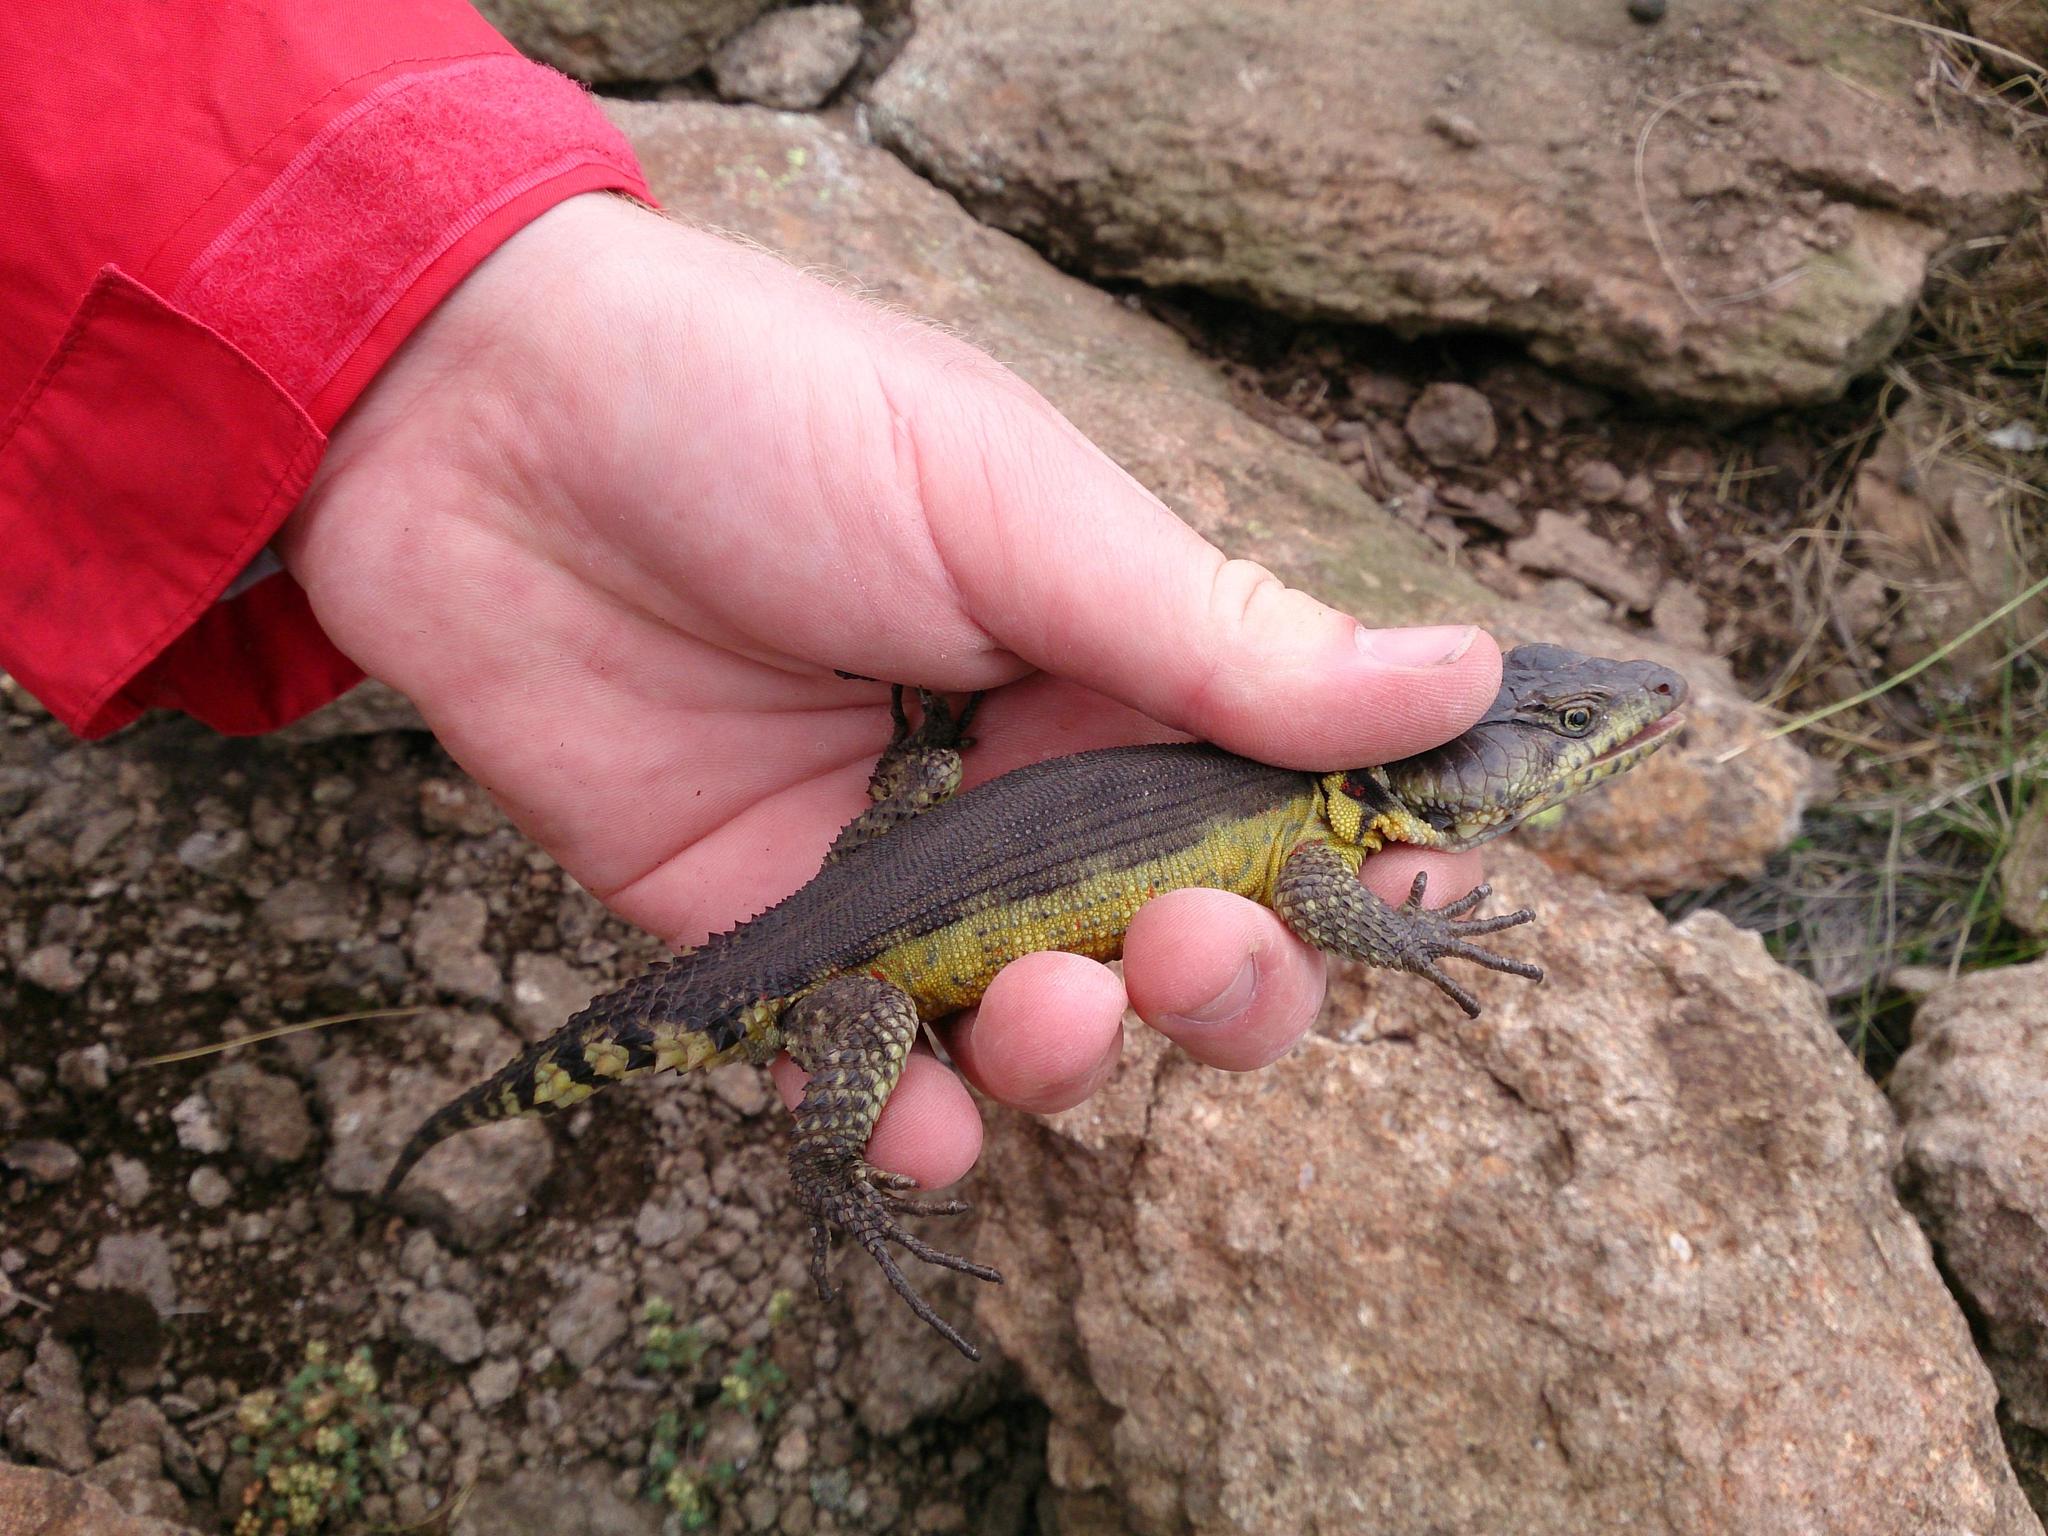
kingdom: Animalia
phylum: Chordata
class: Squamata
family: Cordylidae
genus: Pseudocordylus
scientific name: Pseudocordylus subviridis
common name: Drakensberg crag lizard
